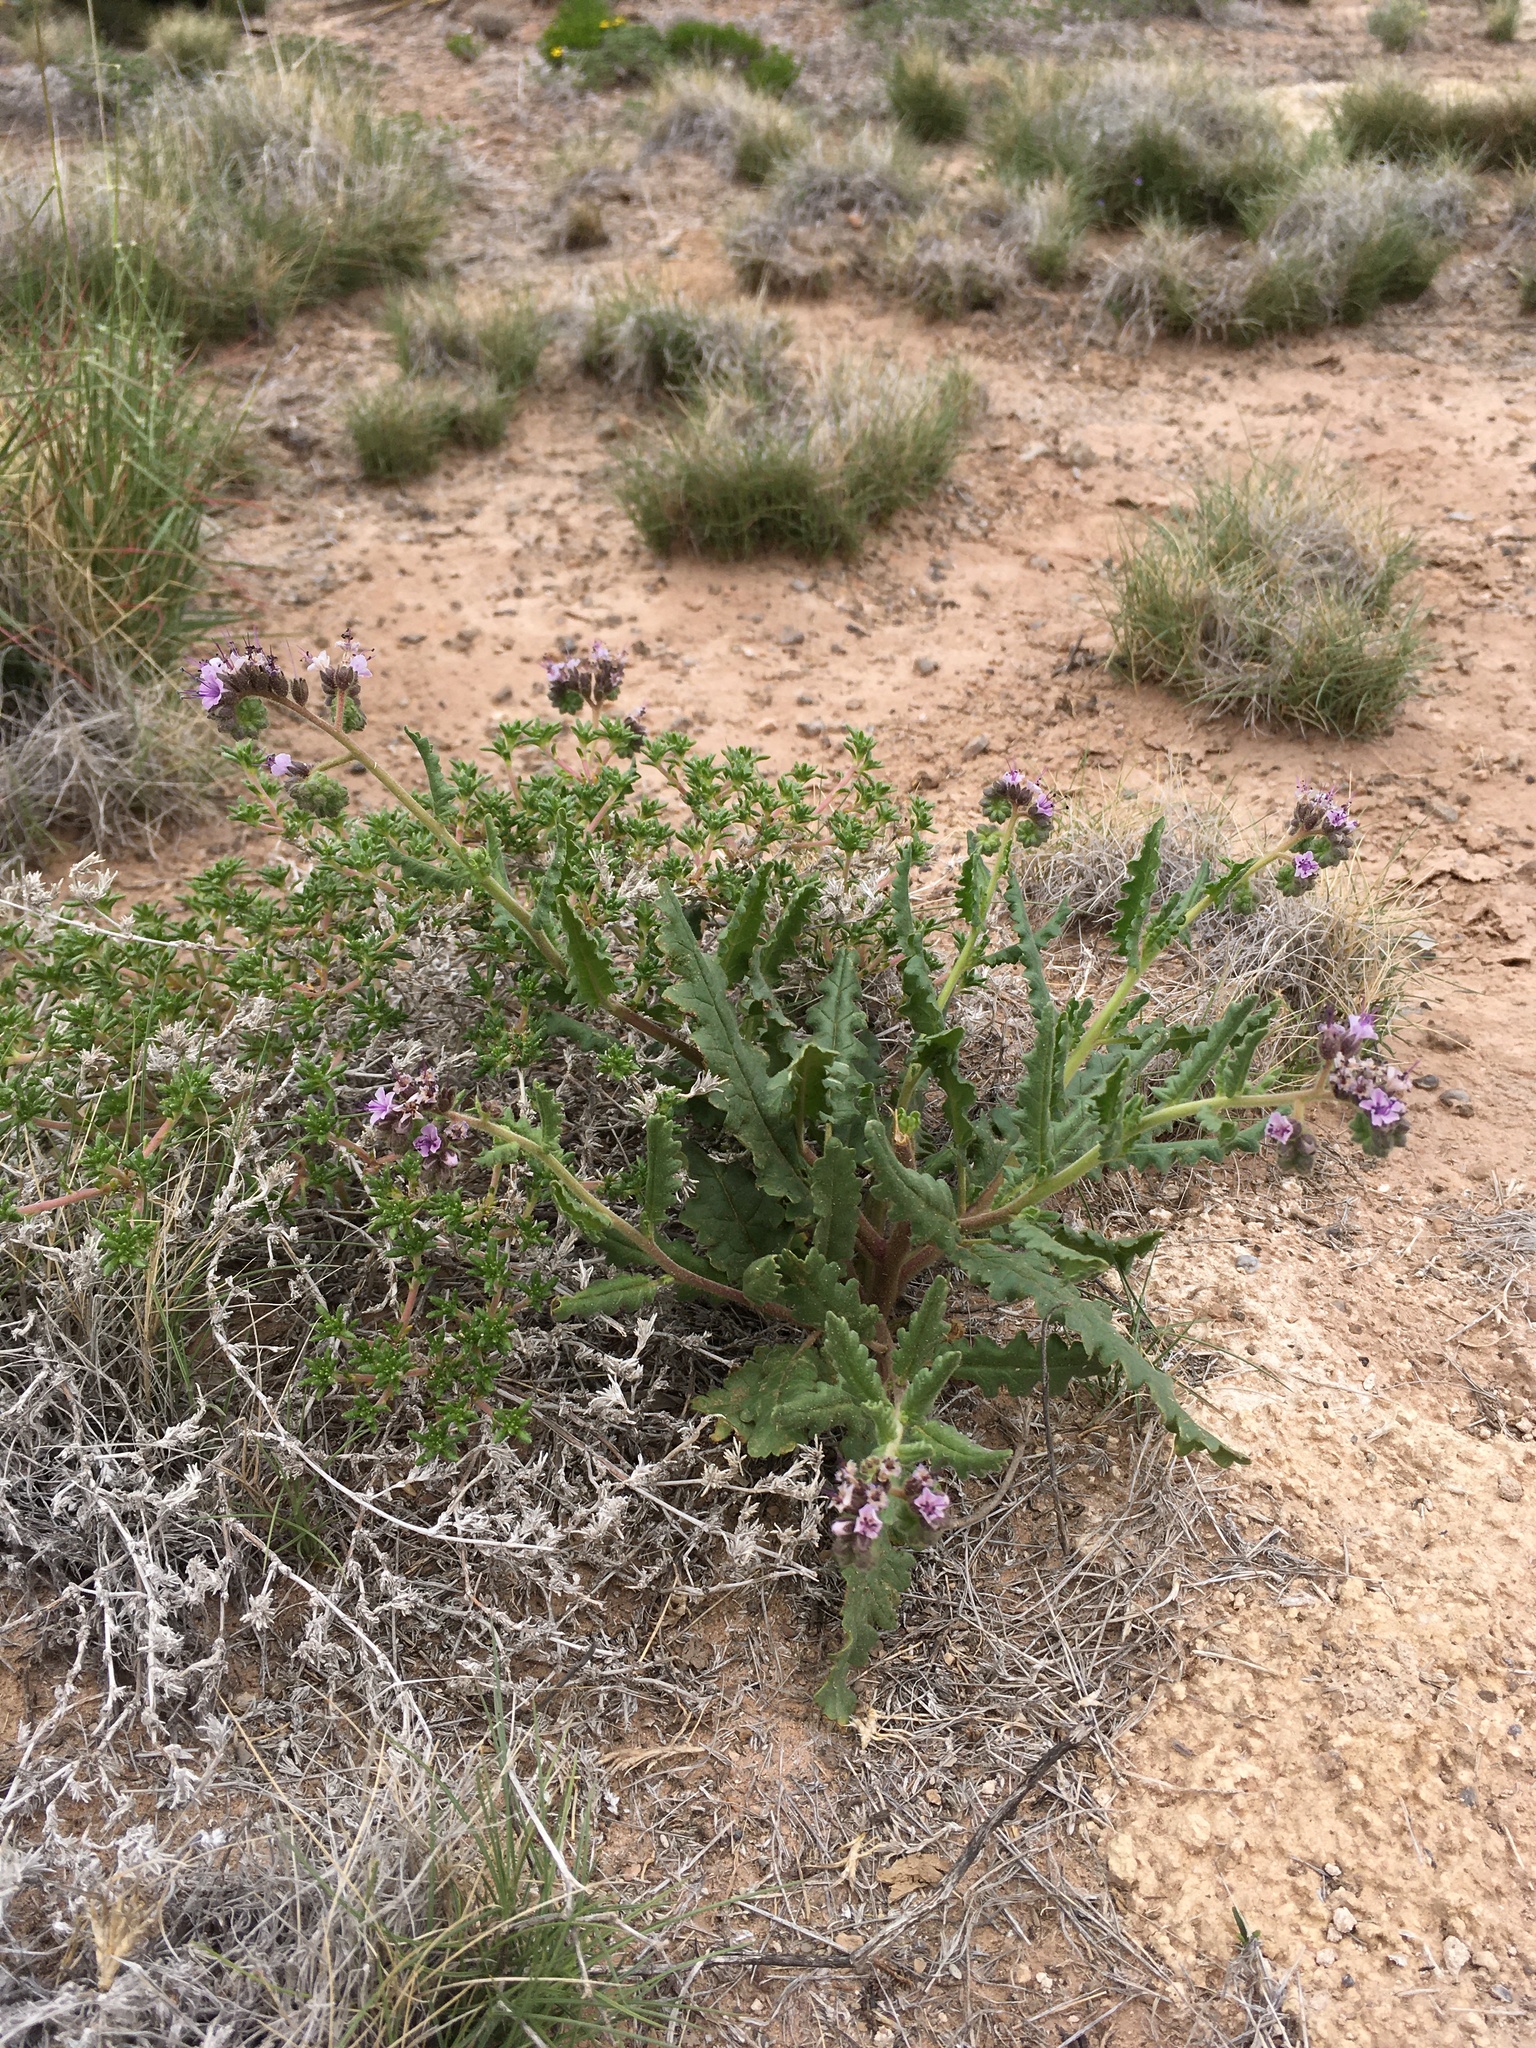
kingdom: Plantae
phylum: Tracheophyta
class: Magnoliopsida
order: Boraginales
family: Hydrophyllaceae
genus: Phacelia
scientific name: Phacelia integrifolia
